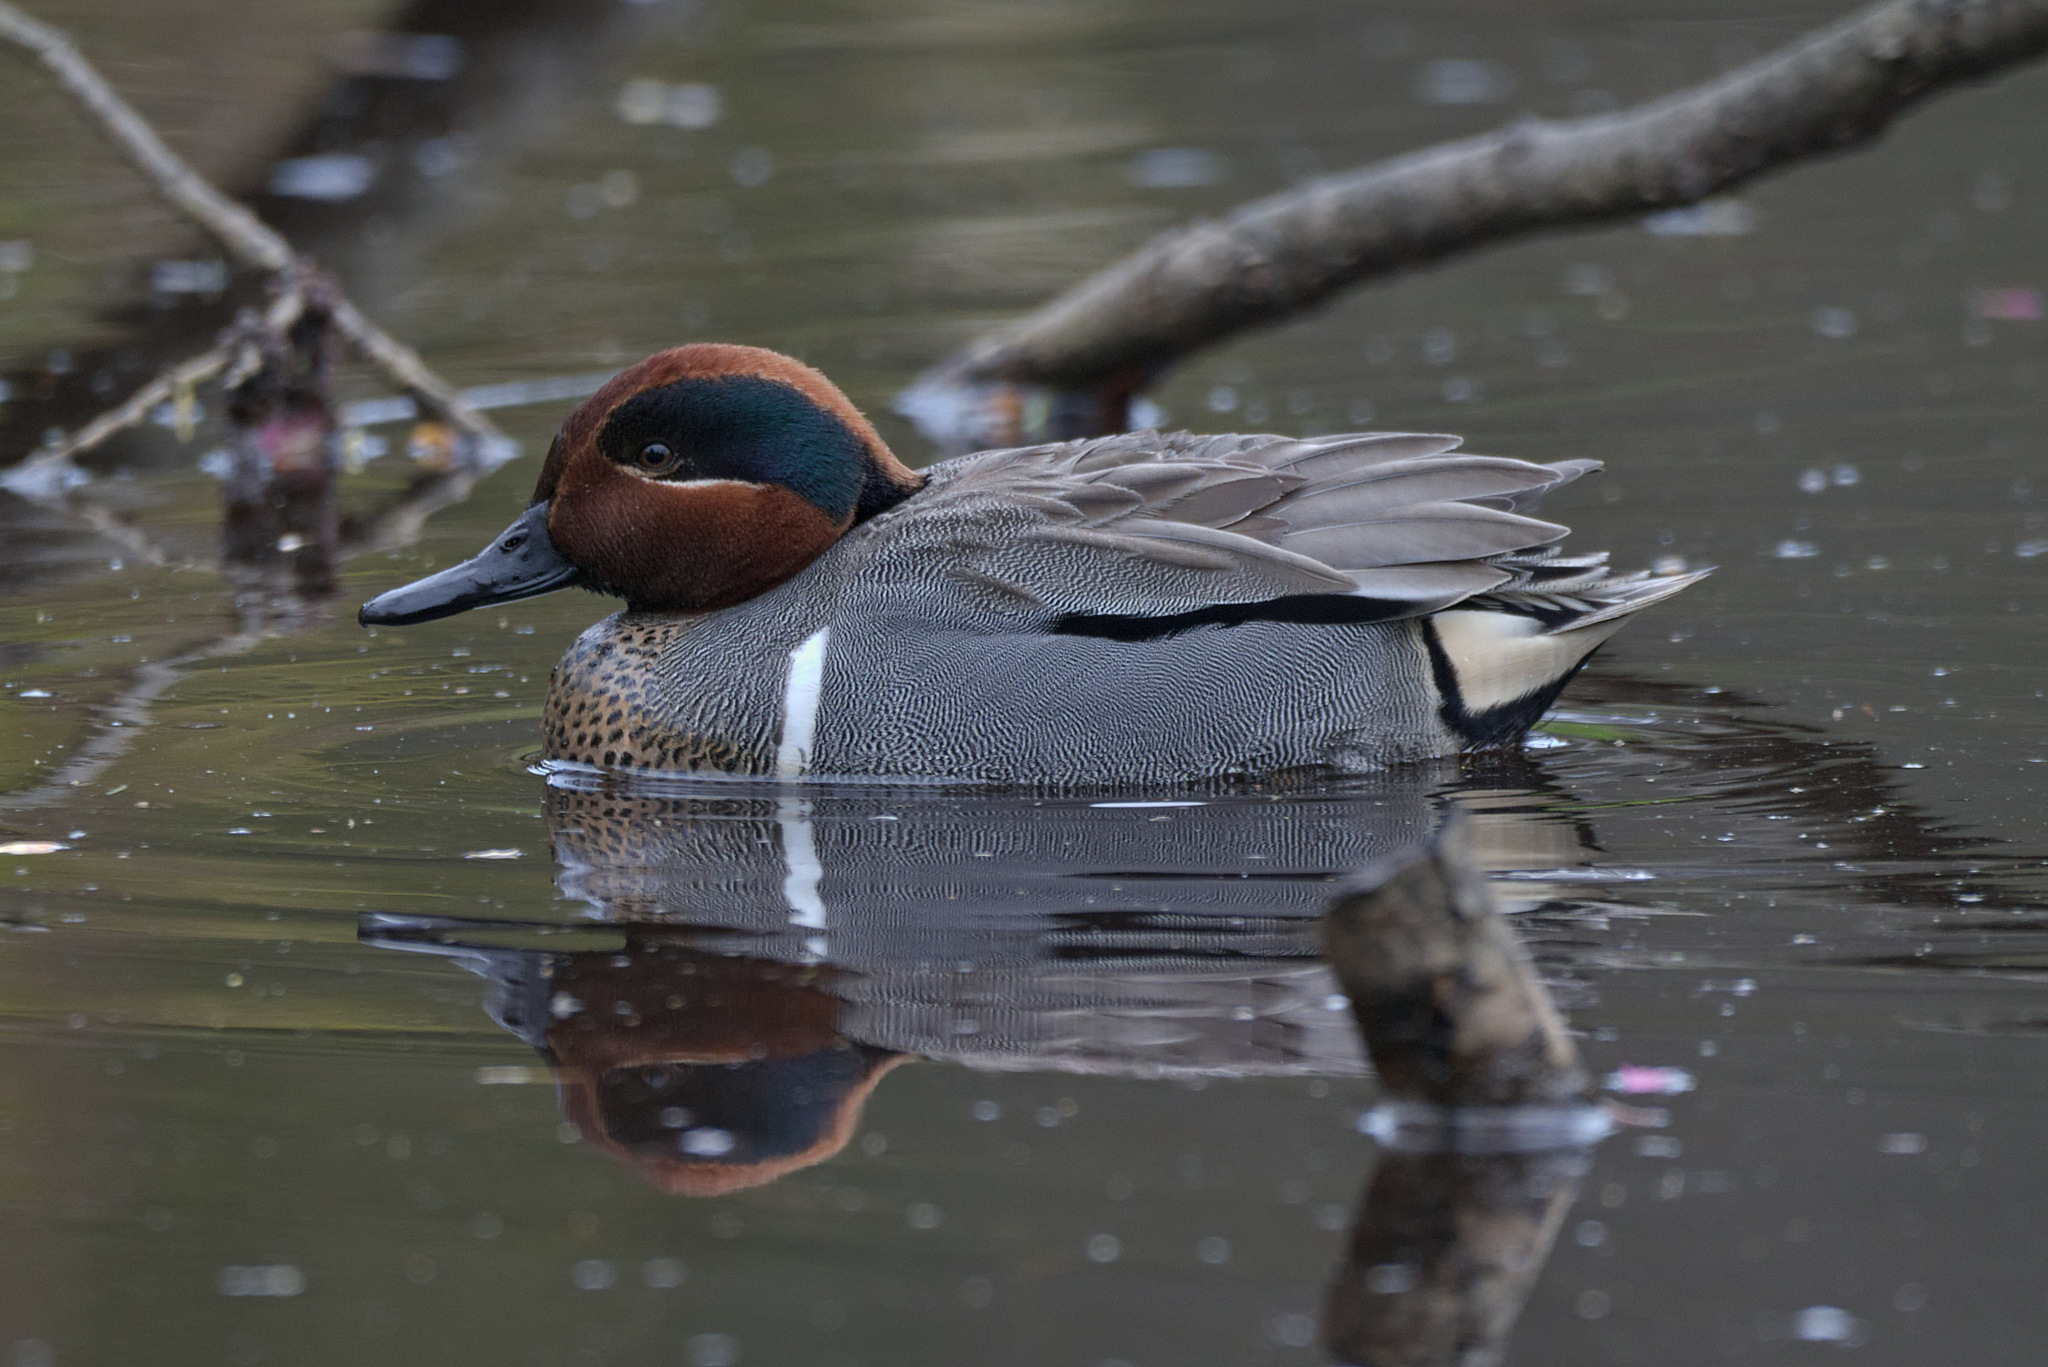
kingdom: Animalia
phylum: Chordata
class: Aves
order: Anseriformes
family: Anatidae
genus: Anas
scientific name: Anas crecca
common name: Eurasian teal
